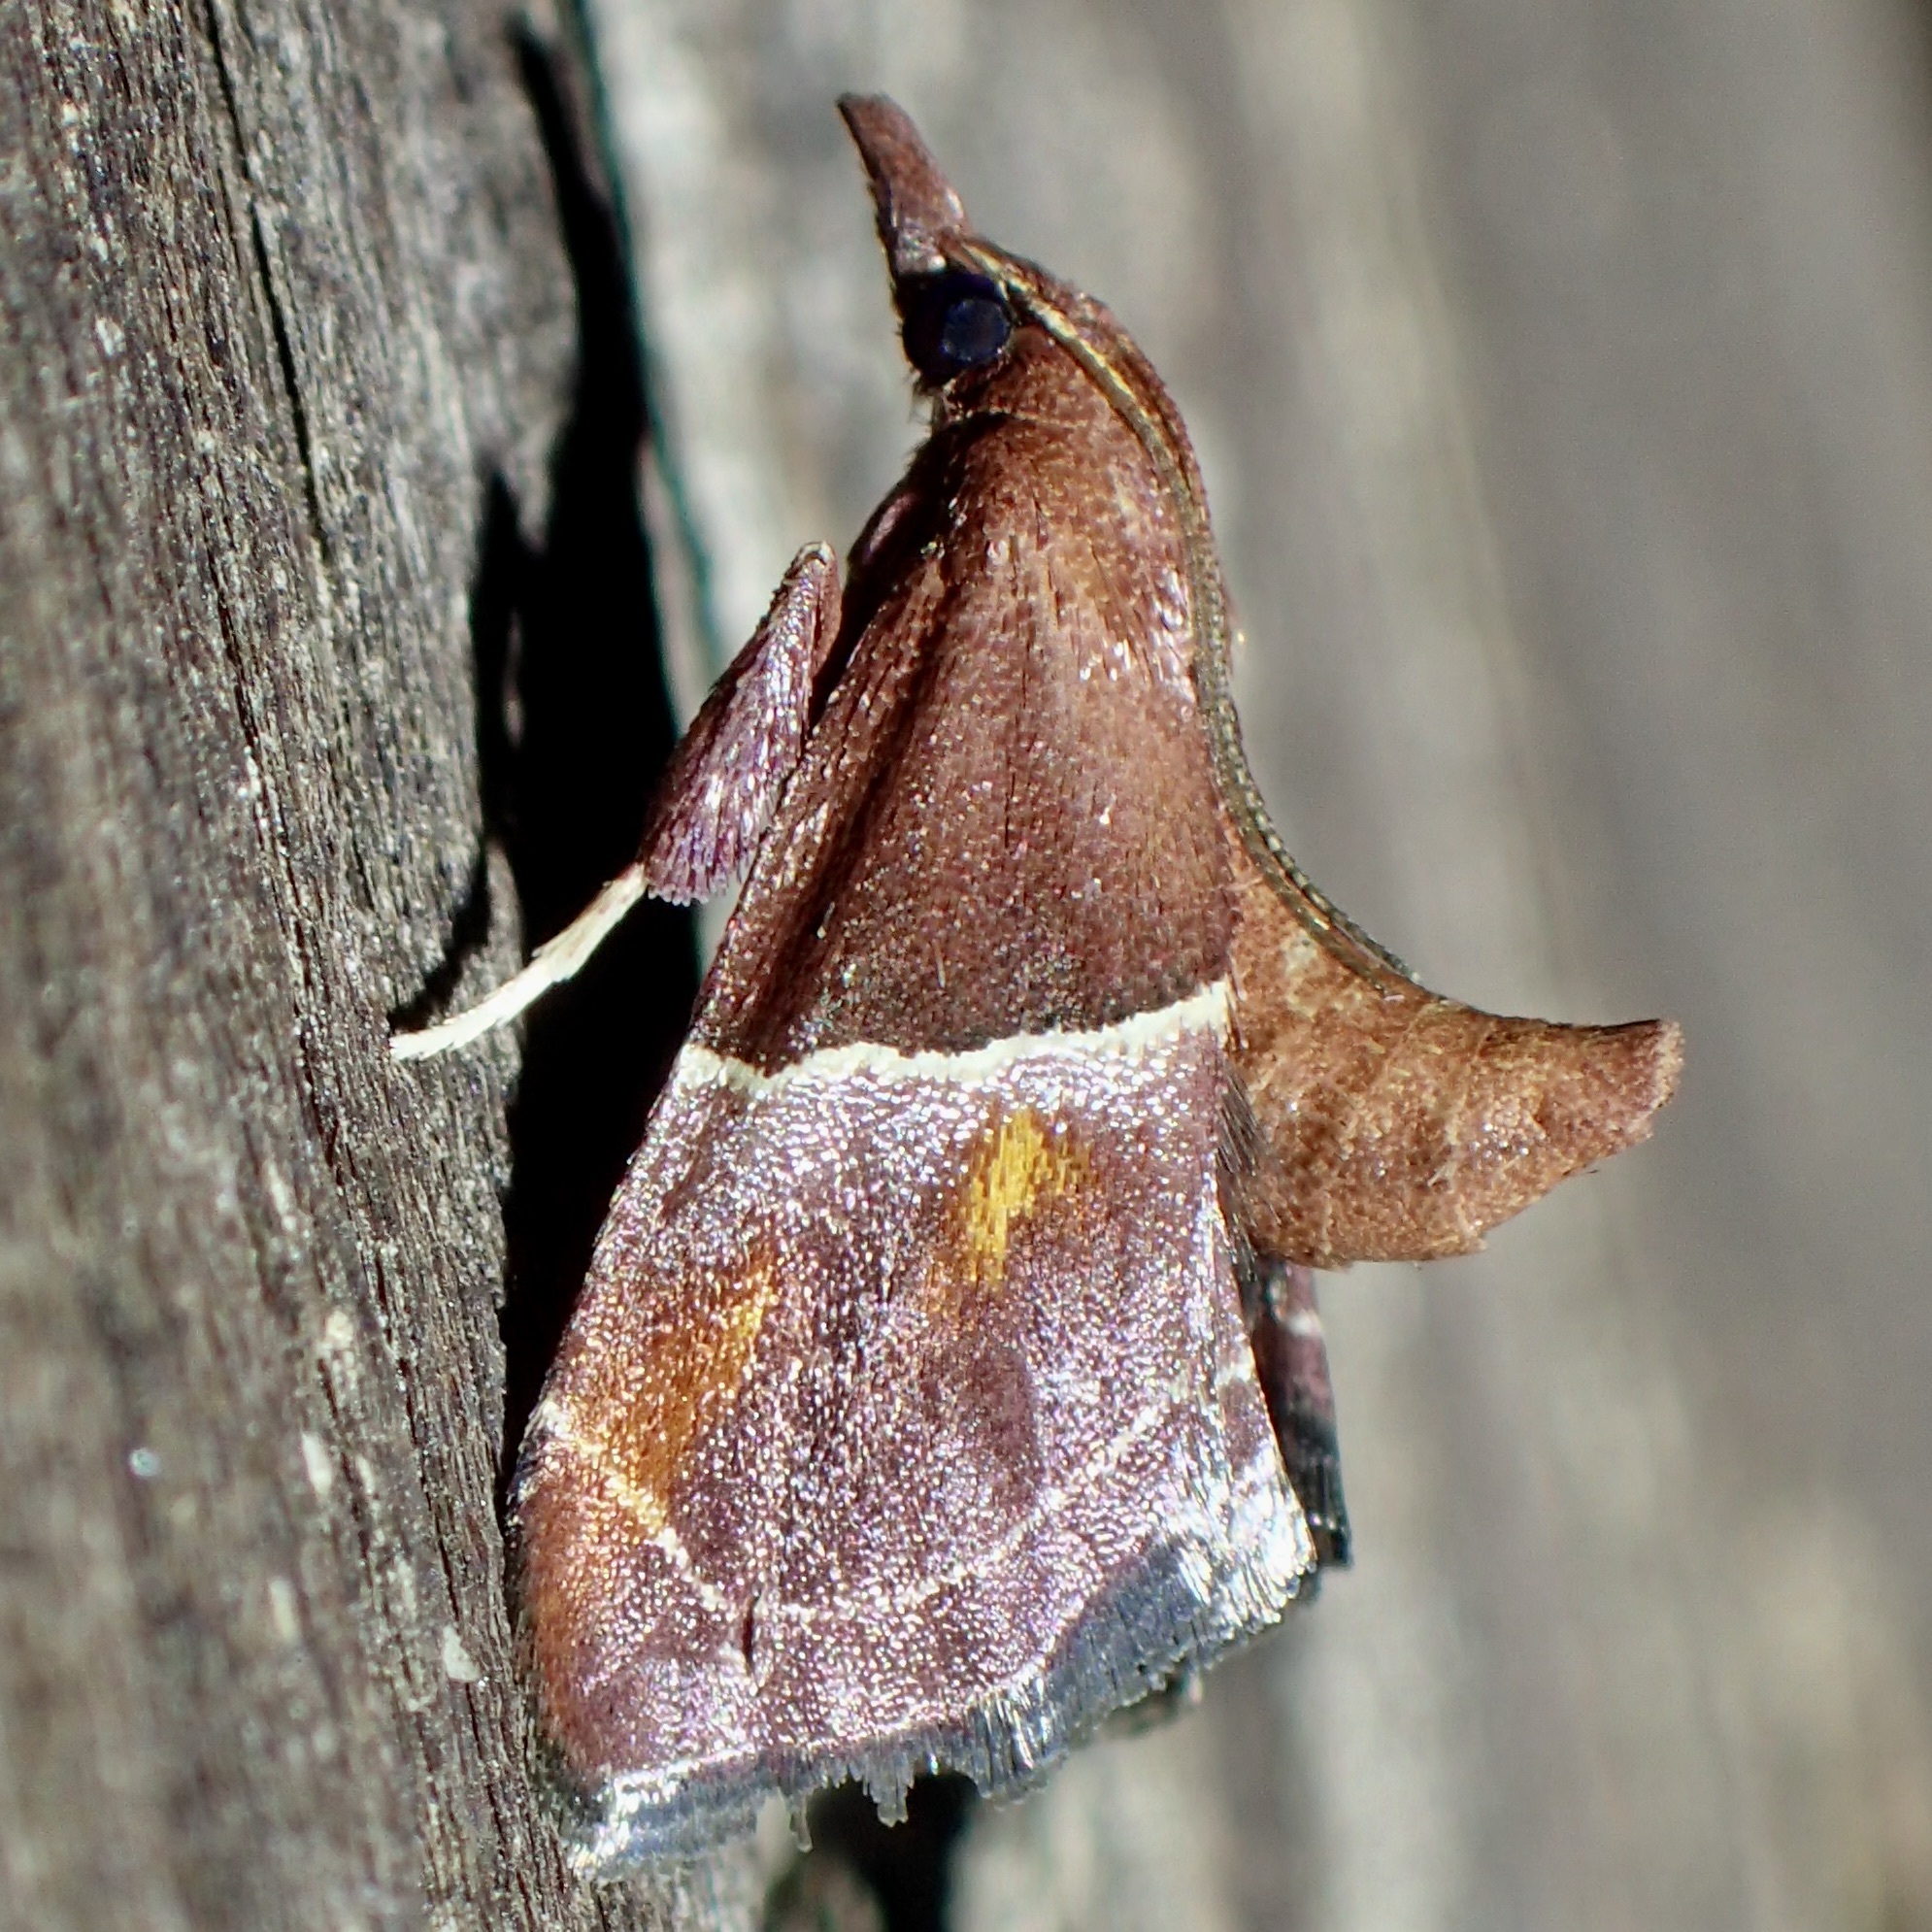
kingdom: Animalia
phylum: Arthropoda
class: Insecta
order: Lepidoptera
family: Pyralidae
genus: Penthesilea
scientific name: Penthesilea sacculalis
